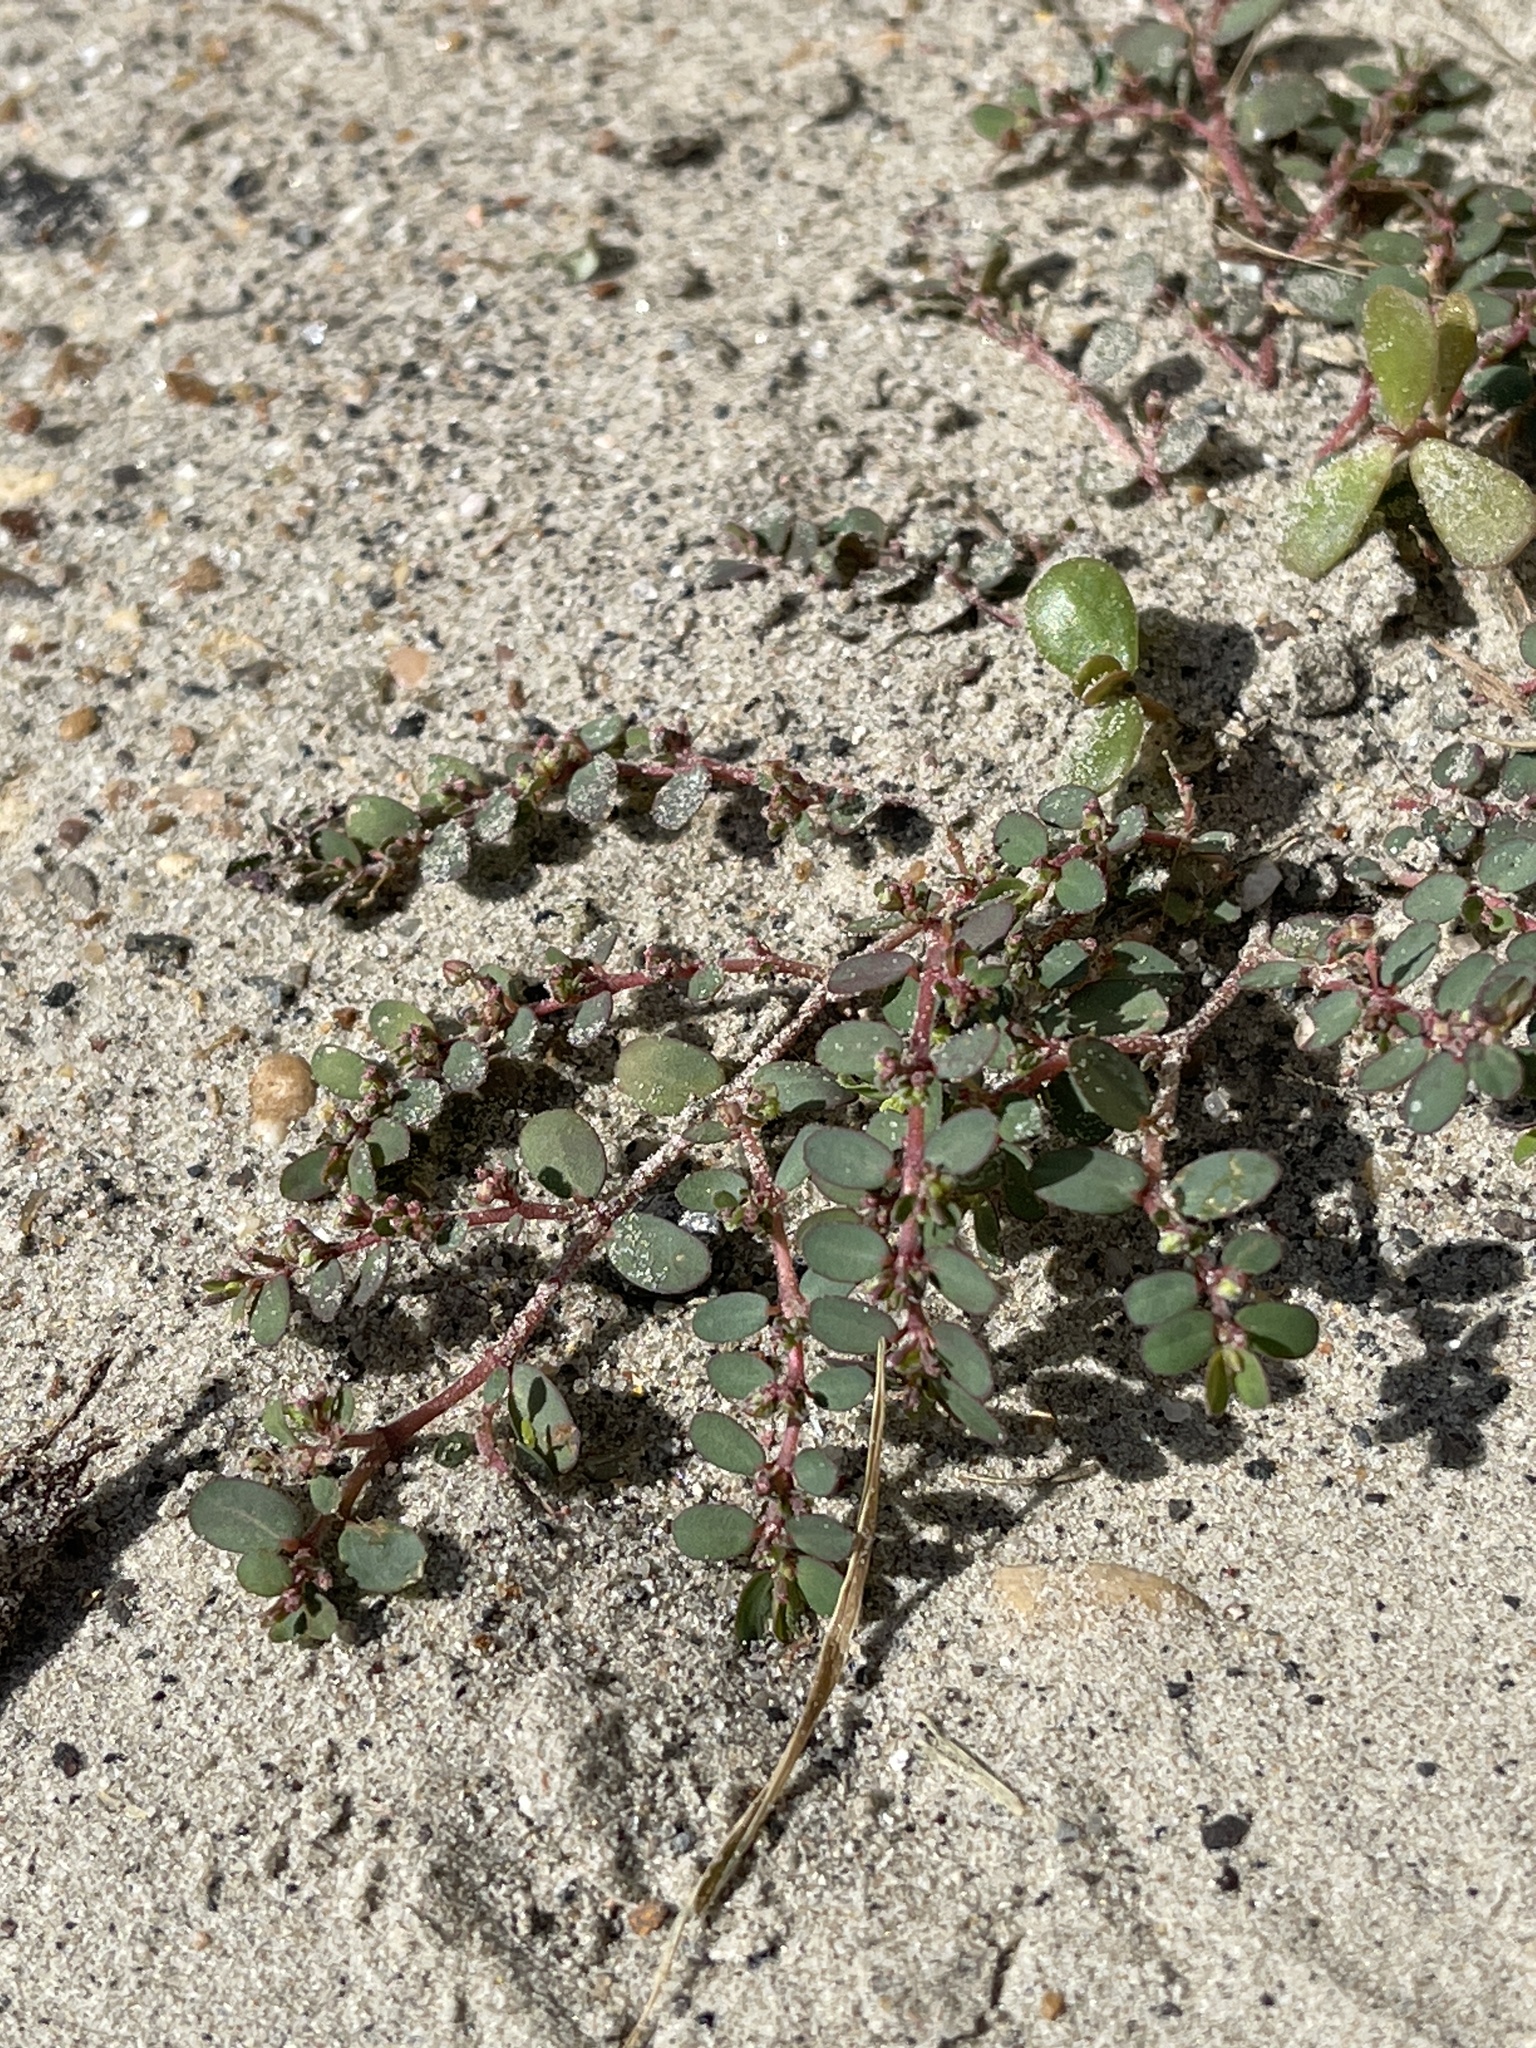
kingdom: Plantae
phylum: Tracheophyta
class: Magnoliopsida
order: Malpighiales
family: Euphorbiaceae
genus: Euphorbia
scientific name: Euphorbia prostrata
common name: Prostrate sandmat
